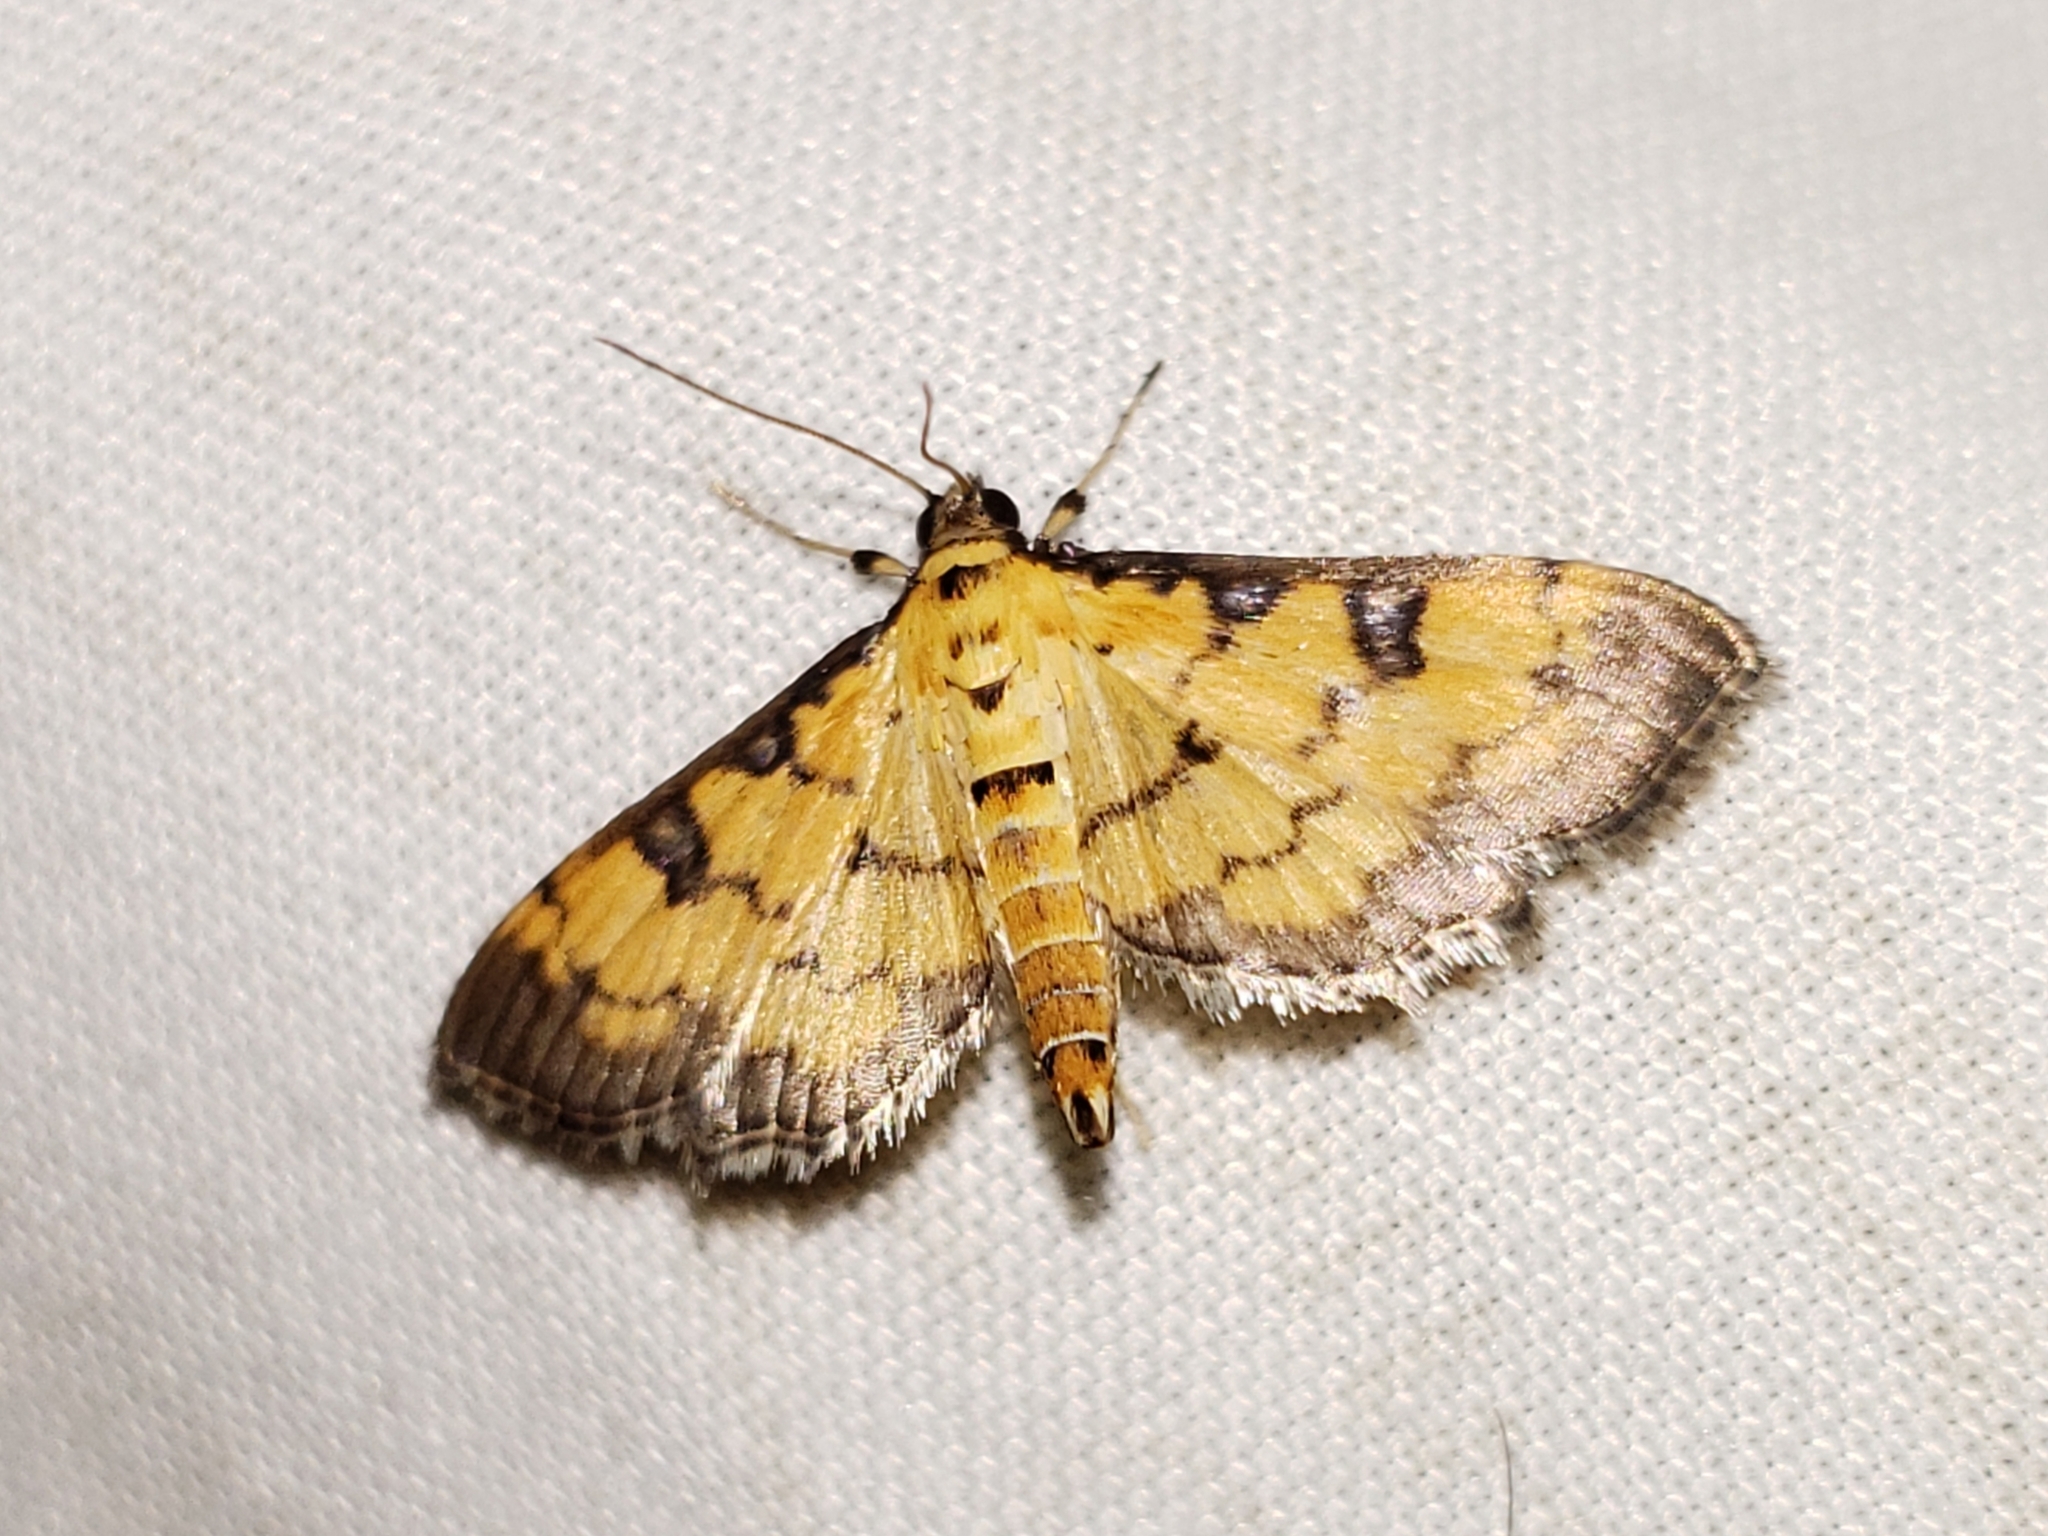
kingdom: Animalia
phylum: Arthropoda
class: Insecta
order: Lepidoptera
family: Crambidae
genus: Ategumia
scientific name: Ategumia ebulealis
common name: Moth
